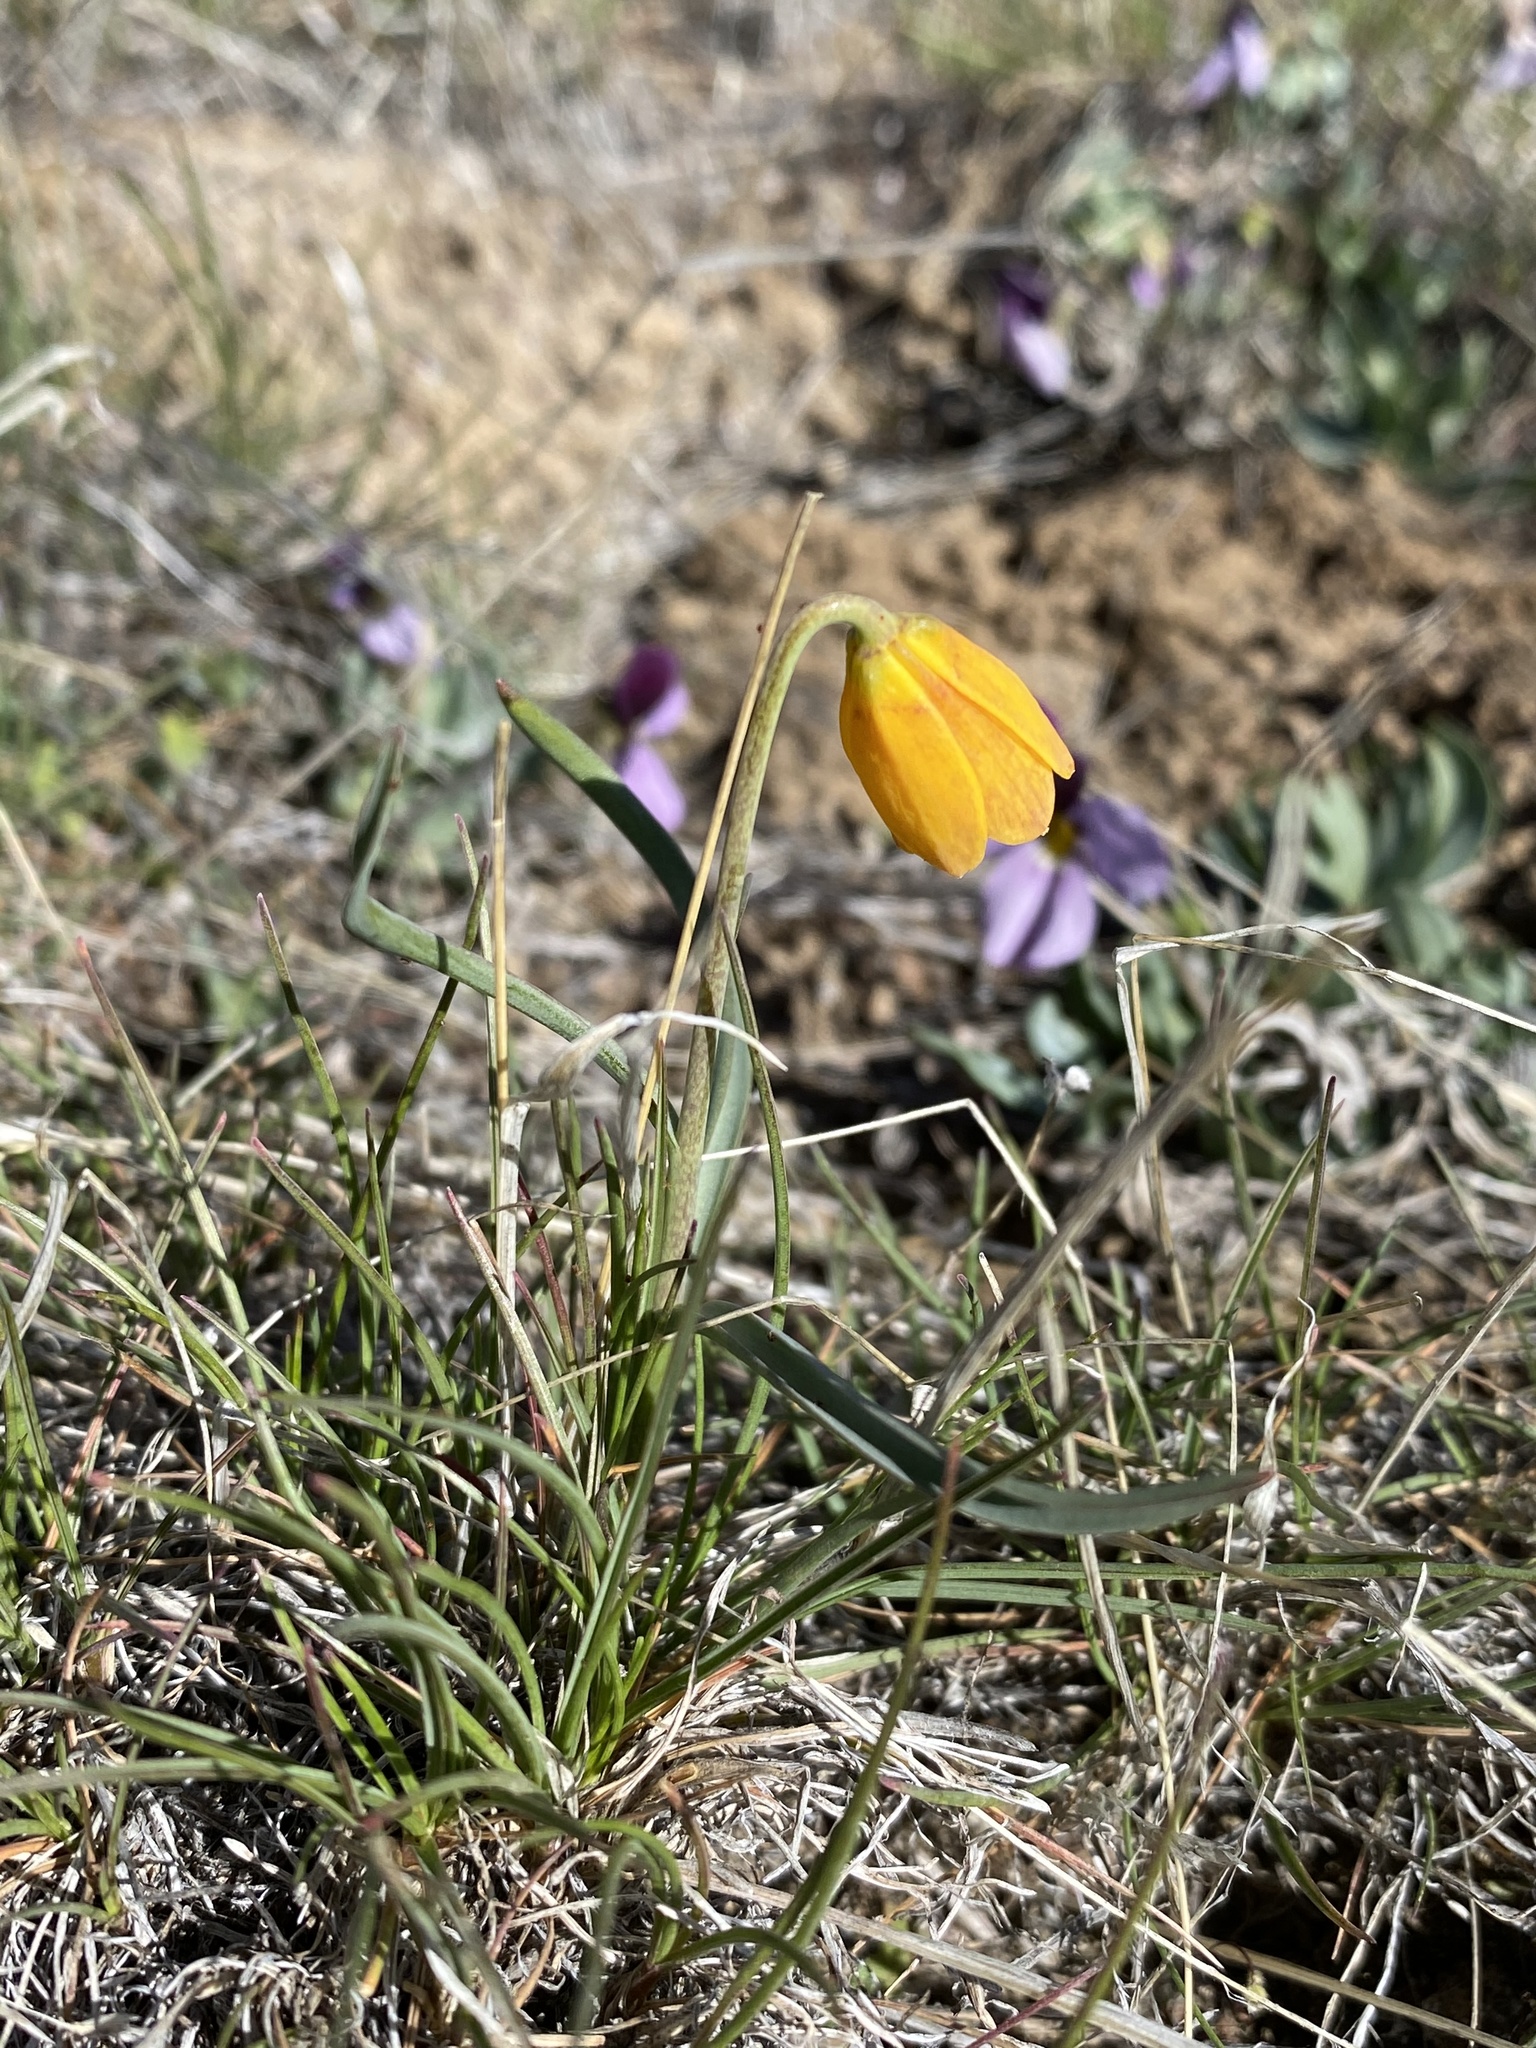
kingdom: Plantae
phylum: Tracheophyta
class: Liliopsida
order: Liliales
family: Liliaceae
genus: Fritillaria
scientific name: Fritillaria pudica
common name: Yellow fritillary
